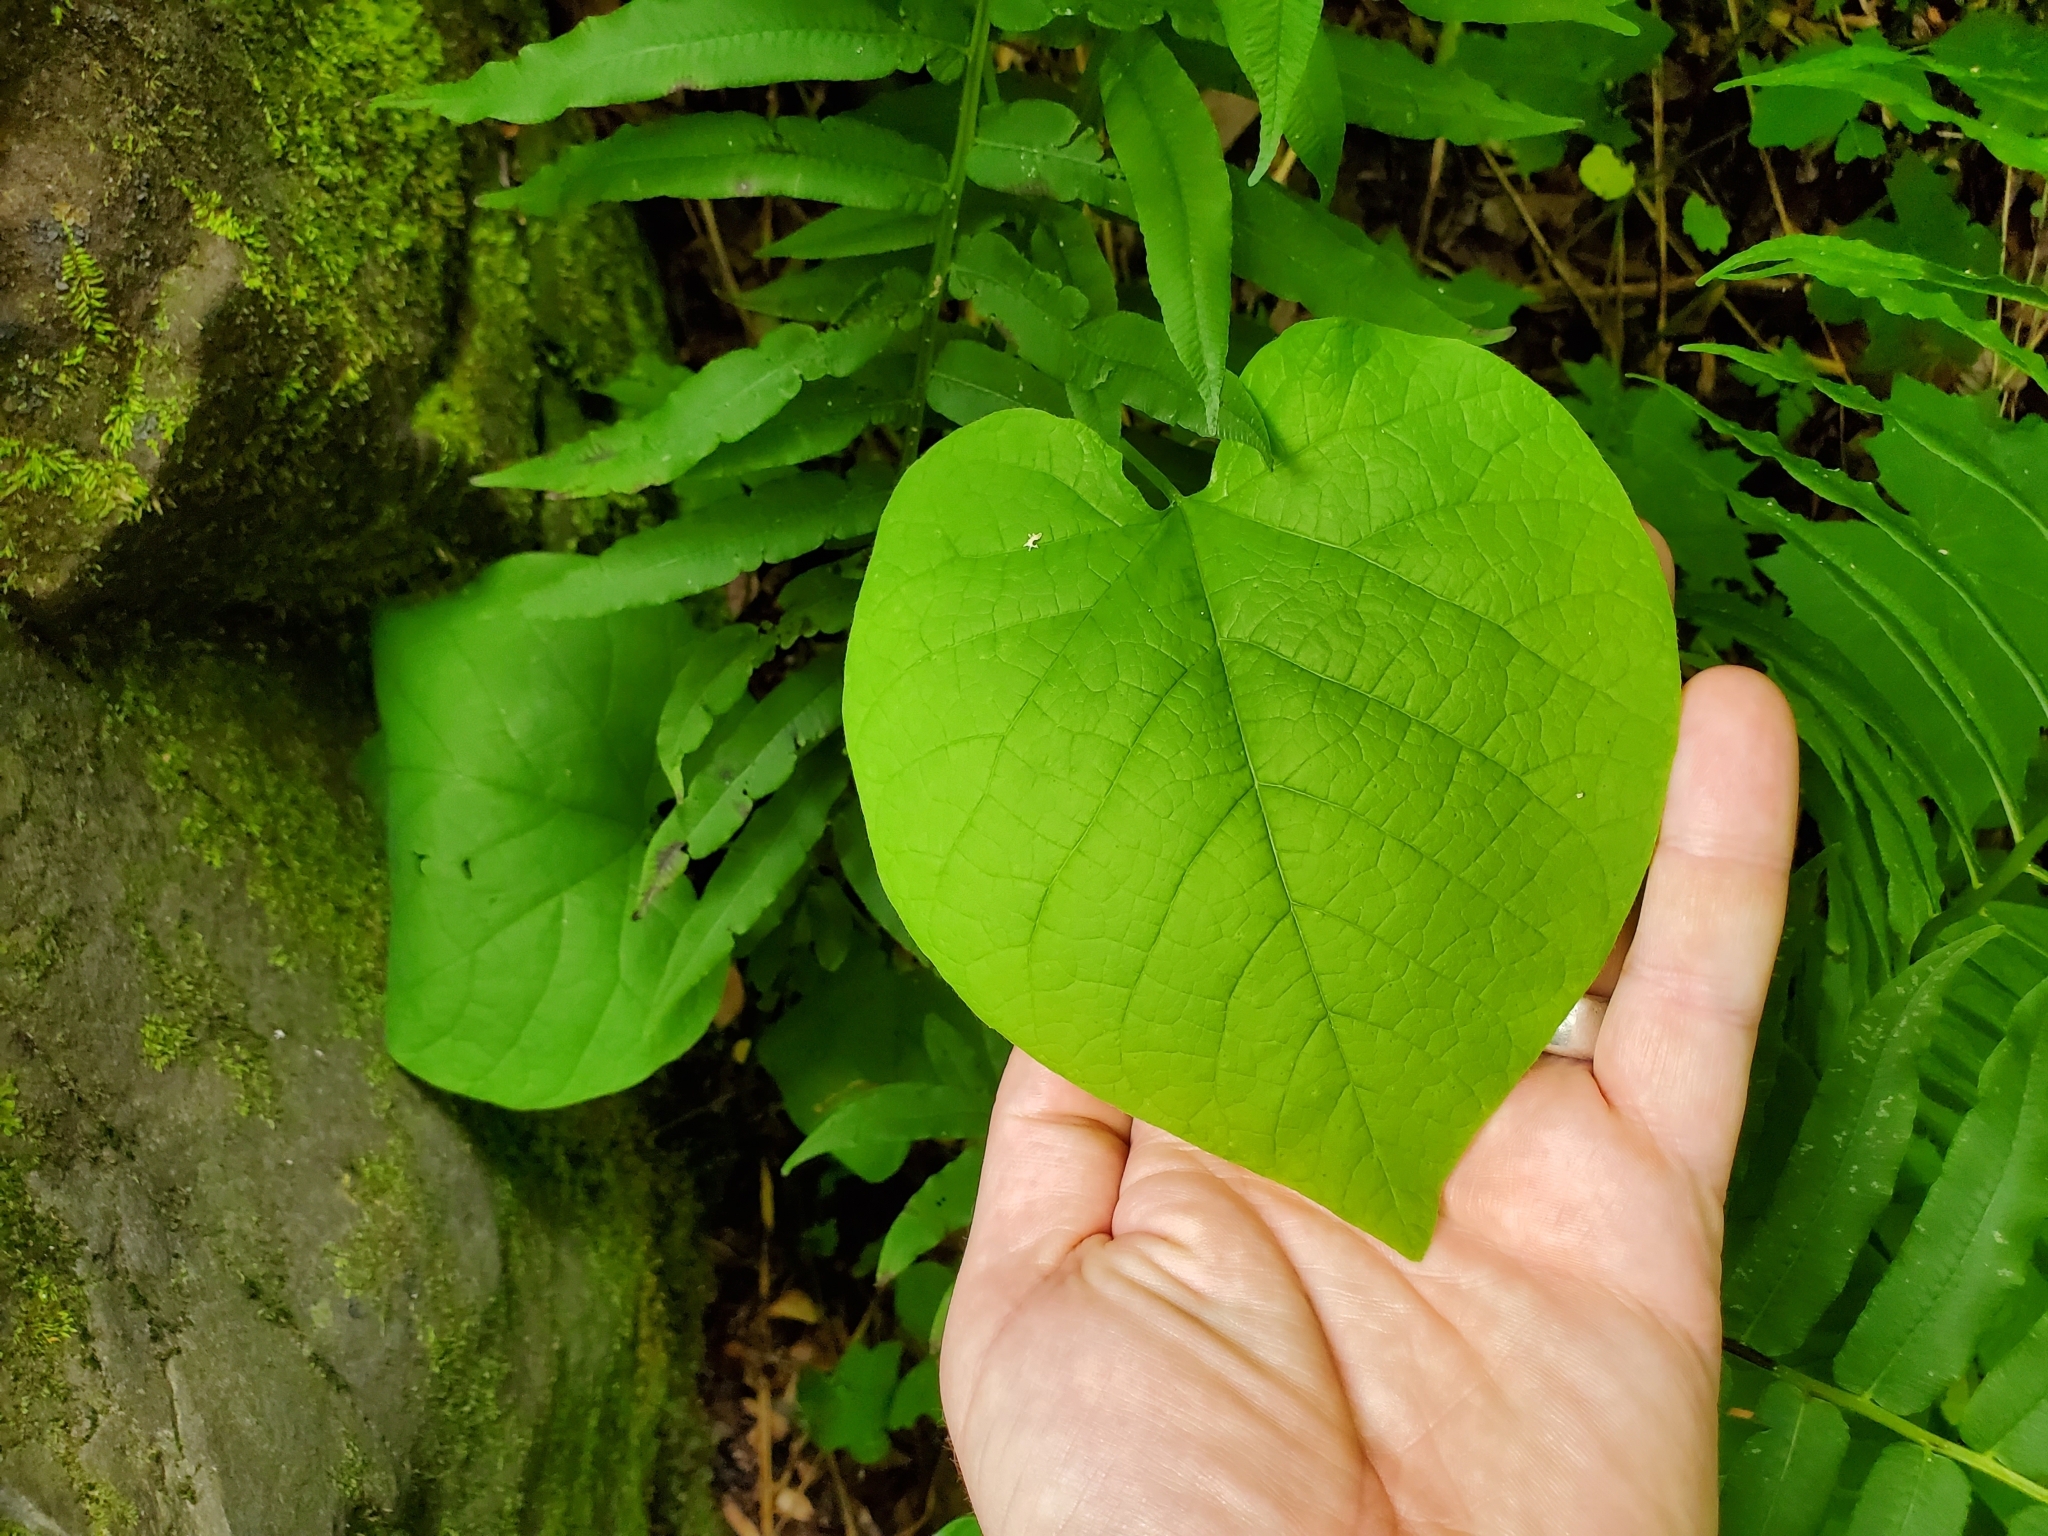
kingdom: Plantae
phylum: Tracheophyta
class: Magnoliopsida
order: Piperales
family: Aristolochiaceae
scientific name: Aristolochiaceae
